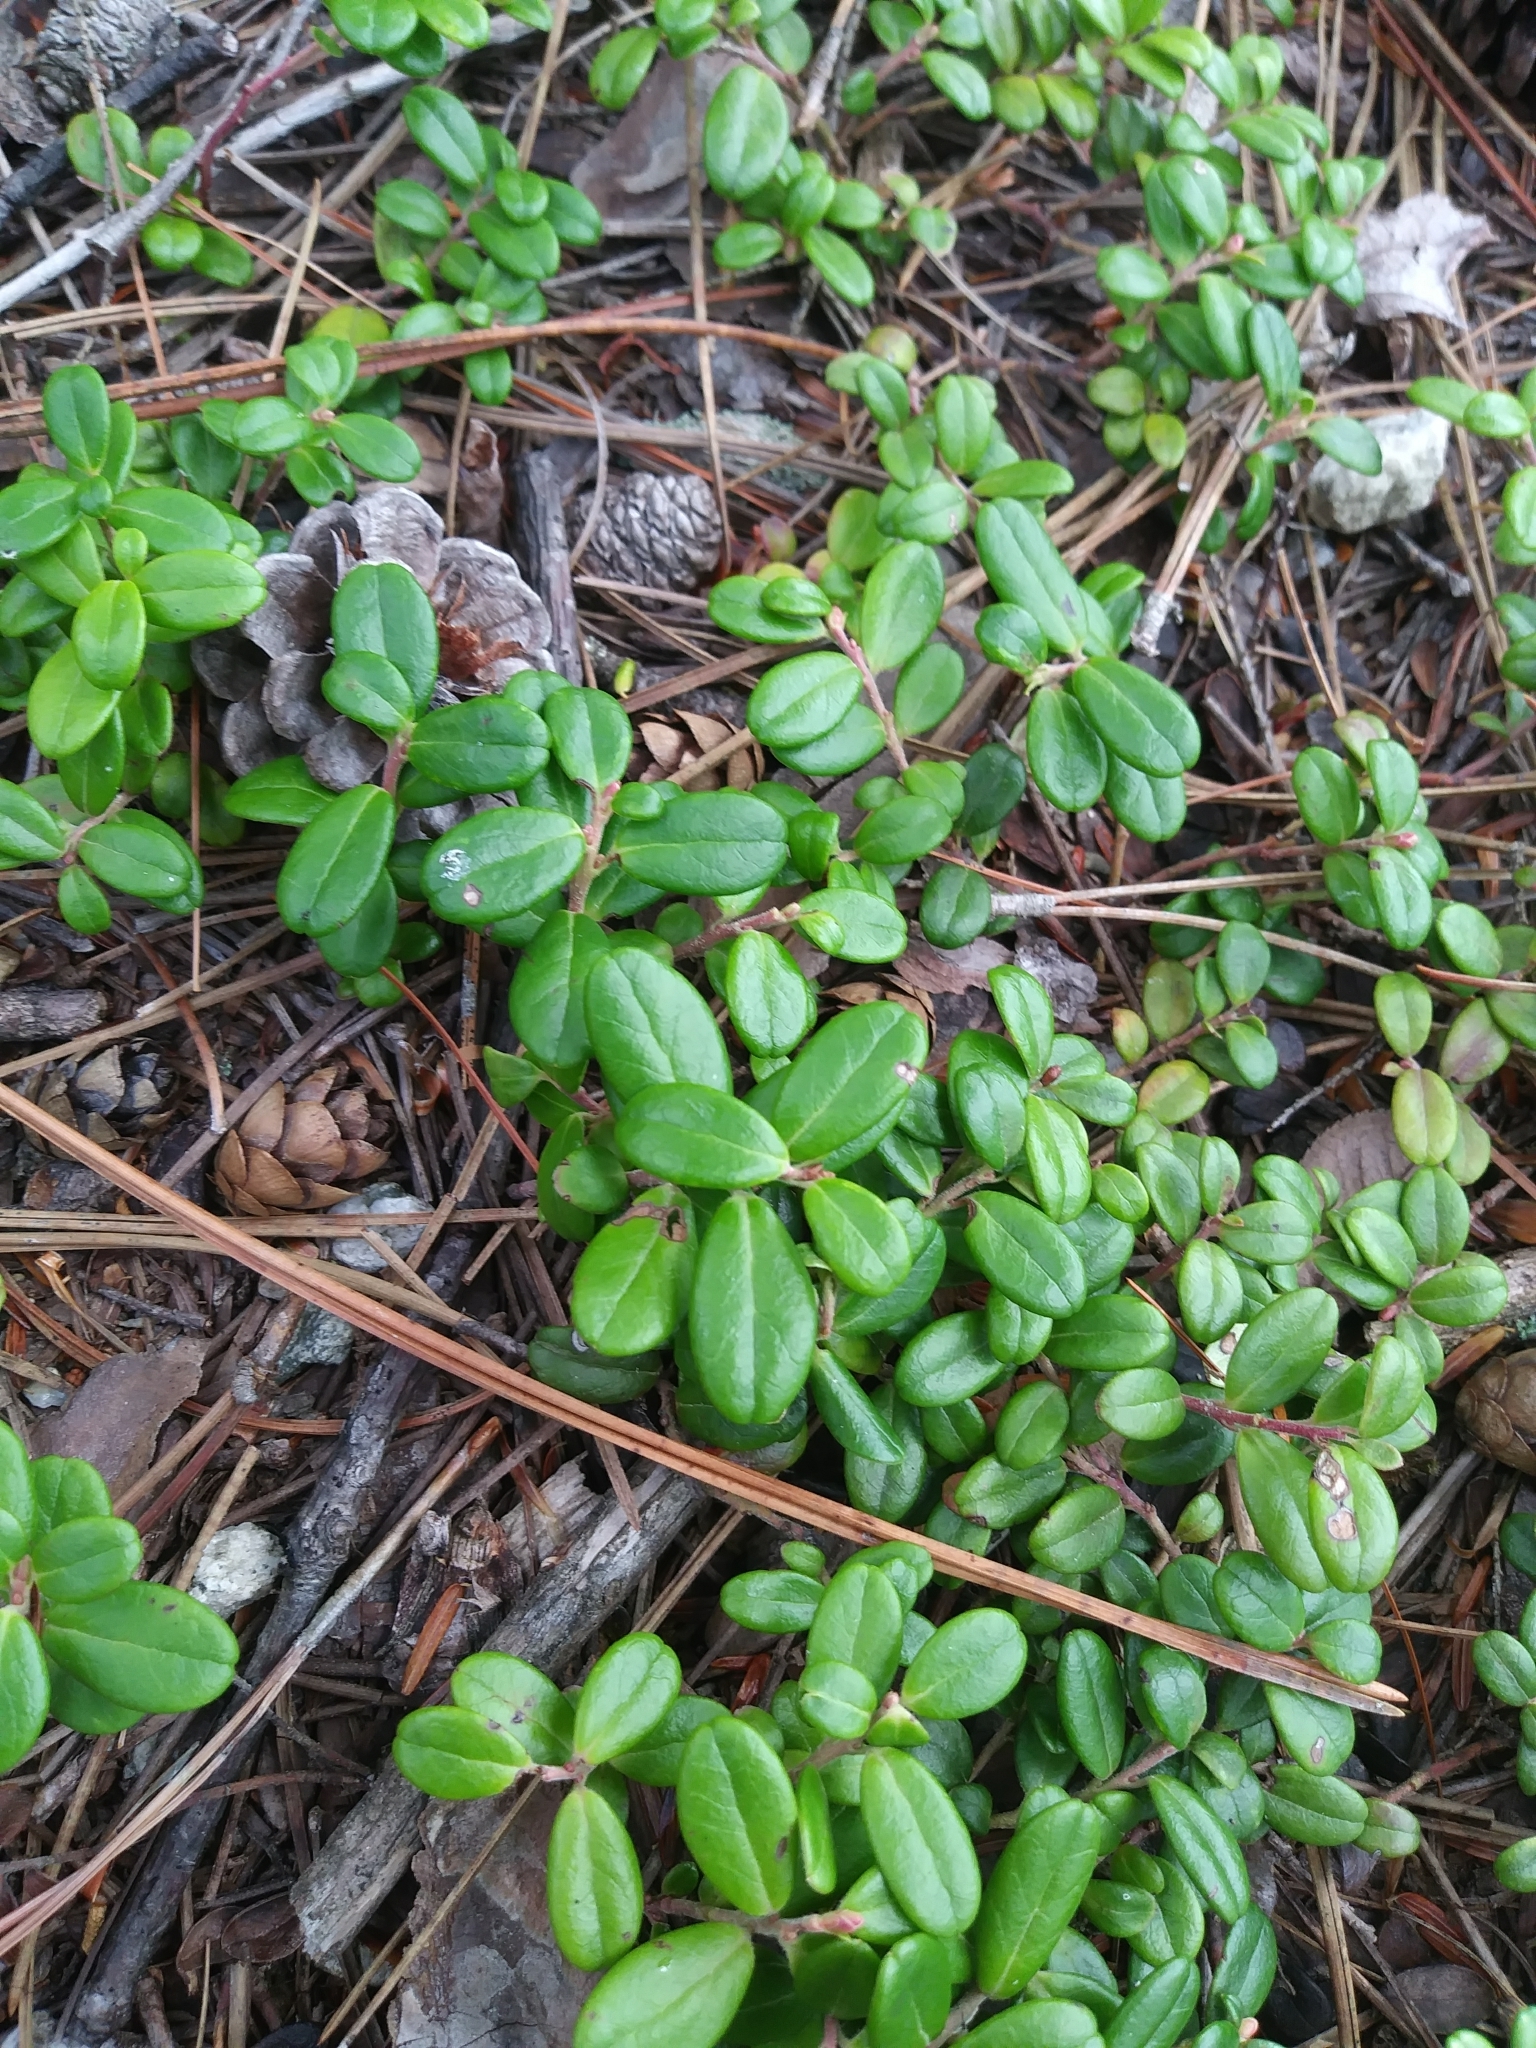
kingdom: Plantae
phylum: Tracheophyta
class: Magnoliopsida
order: Ericales
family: Ericaceae
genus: Vaccinium
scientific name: Vaccinium vitis-idaea
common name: Cowberry
